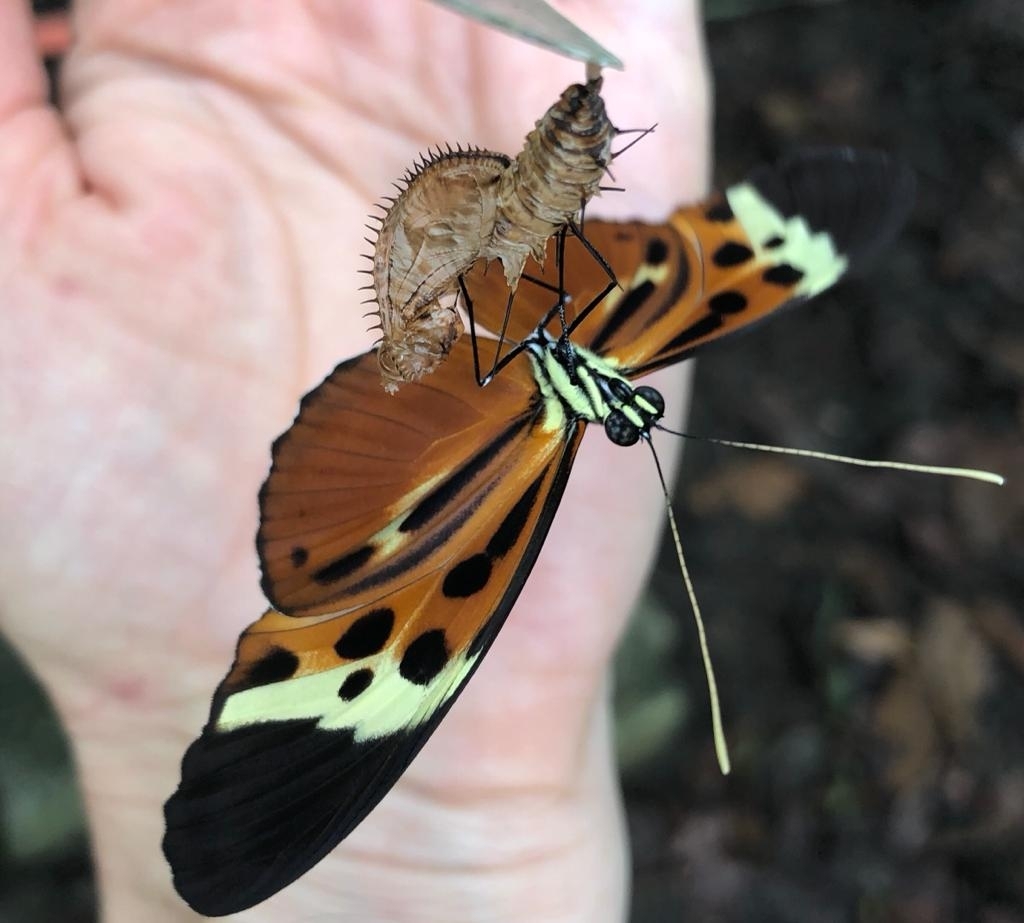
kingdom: Animalia
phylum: Arthropoda
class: Insecta
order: Lepidoptera
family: Nymphalidae
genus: Heliconius
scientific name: Heliconius numatus
